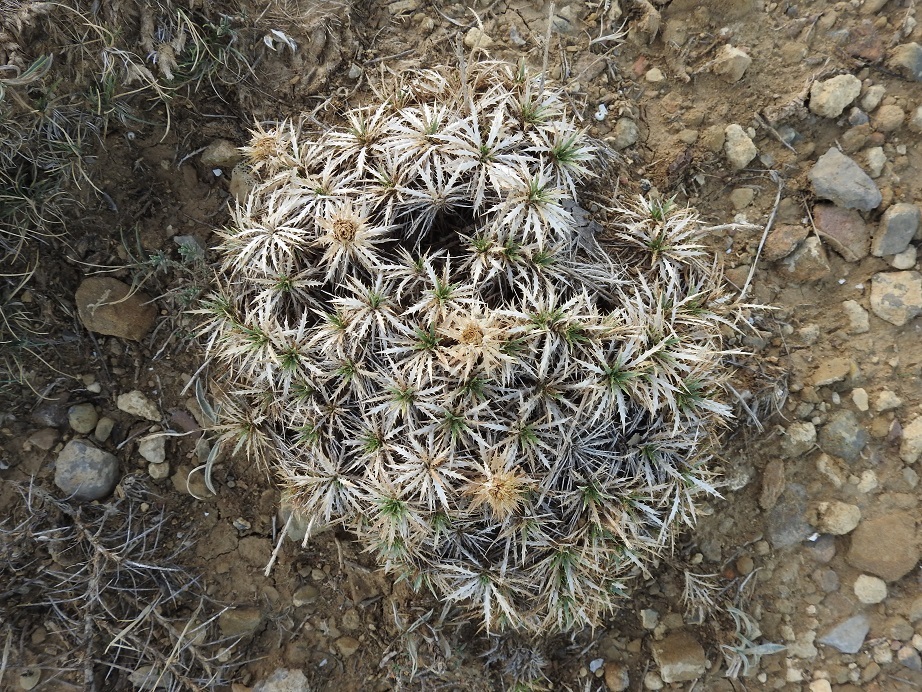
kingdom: Plantae
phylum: Tracheophyta
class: Magnoliopsida
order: Asterales
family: Asteraceae
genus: Atractylis
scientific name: Atractylis caespitosa
